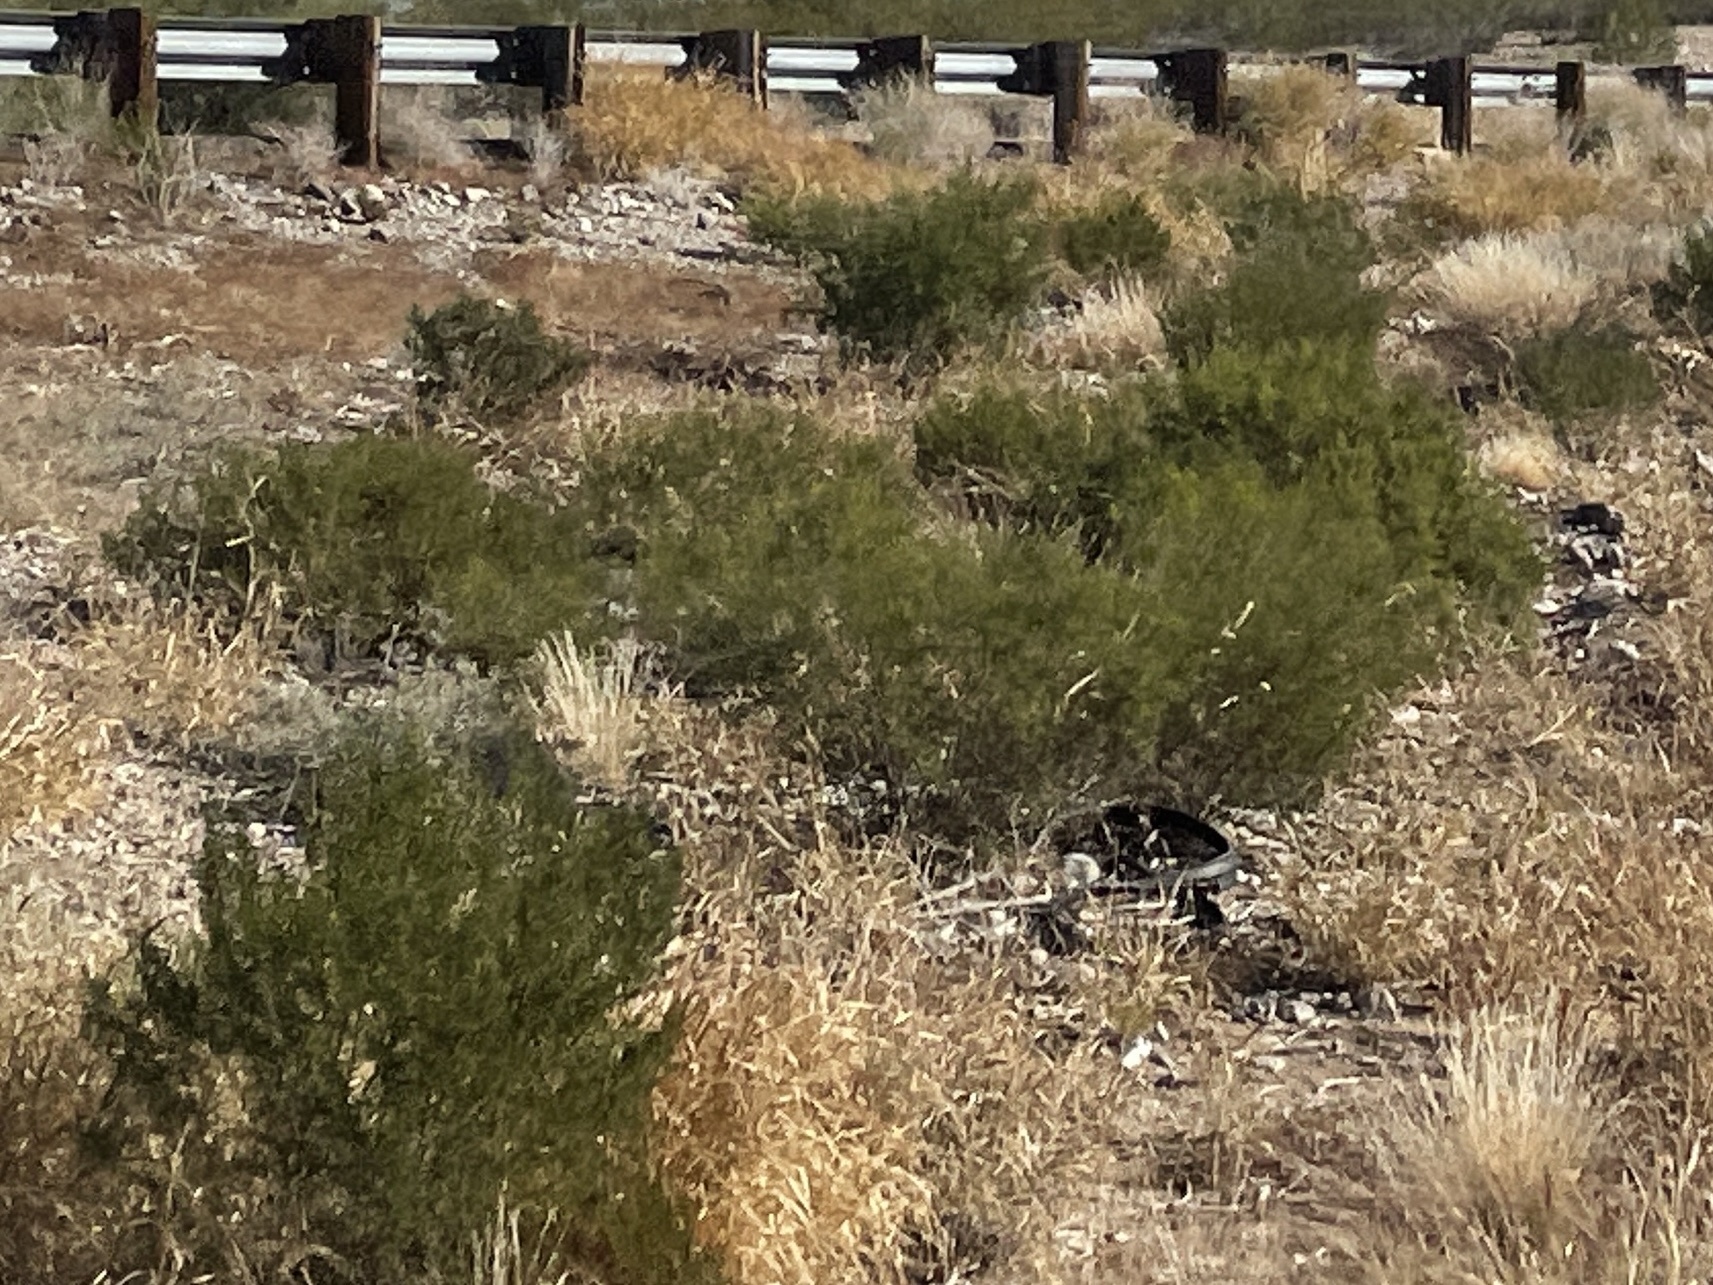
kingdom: Plantae
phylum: Tracheophyta
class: Magnoliopsida
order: Zygophyllales
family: Zygophyllaceae
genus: Larrea
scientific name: Larrea tridentata
